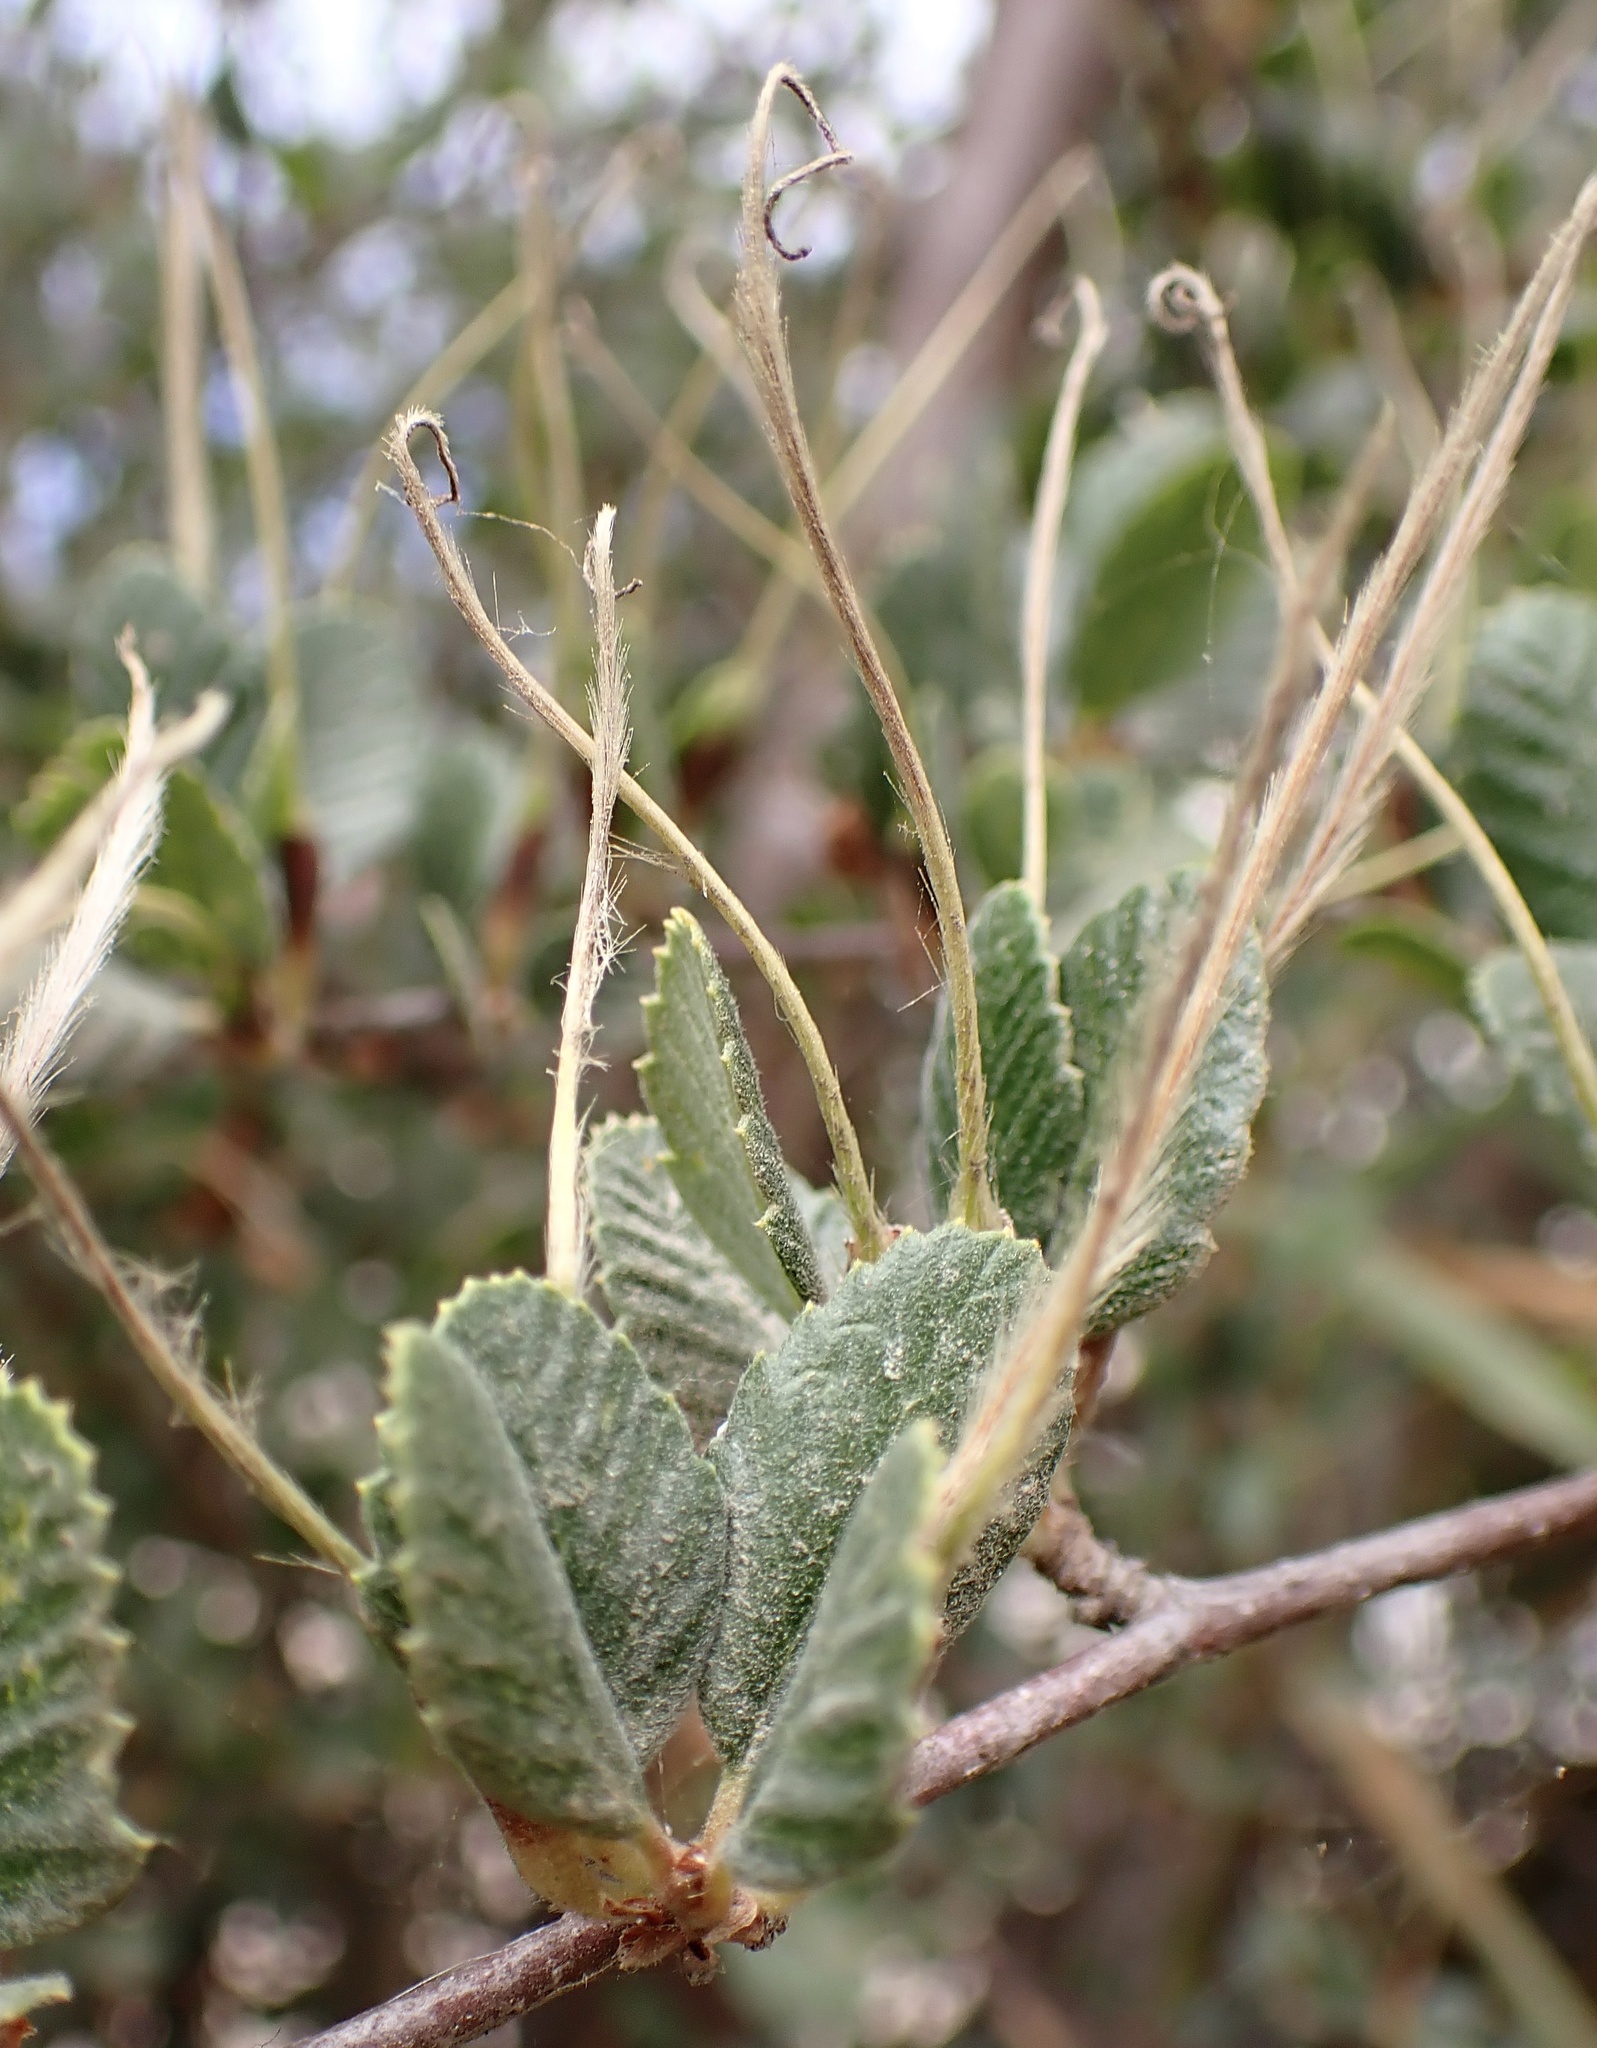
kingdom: Plantae
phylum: Tracheophyta
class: Magnoliopsida
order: Rosales
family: Rosaceae
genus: Cercocarpus
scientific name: Cercocarpus betuloides
